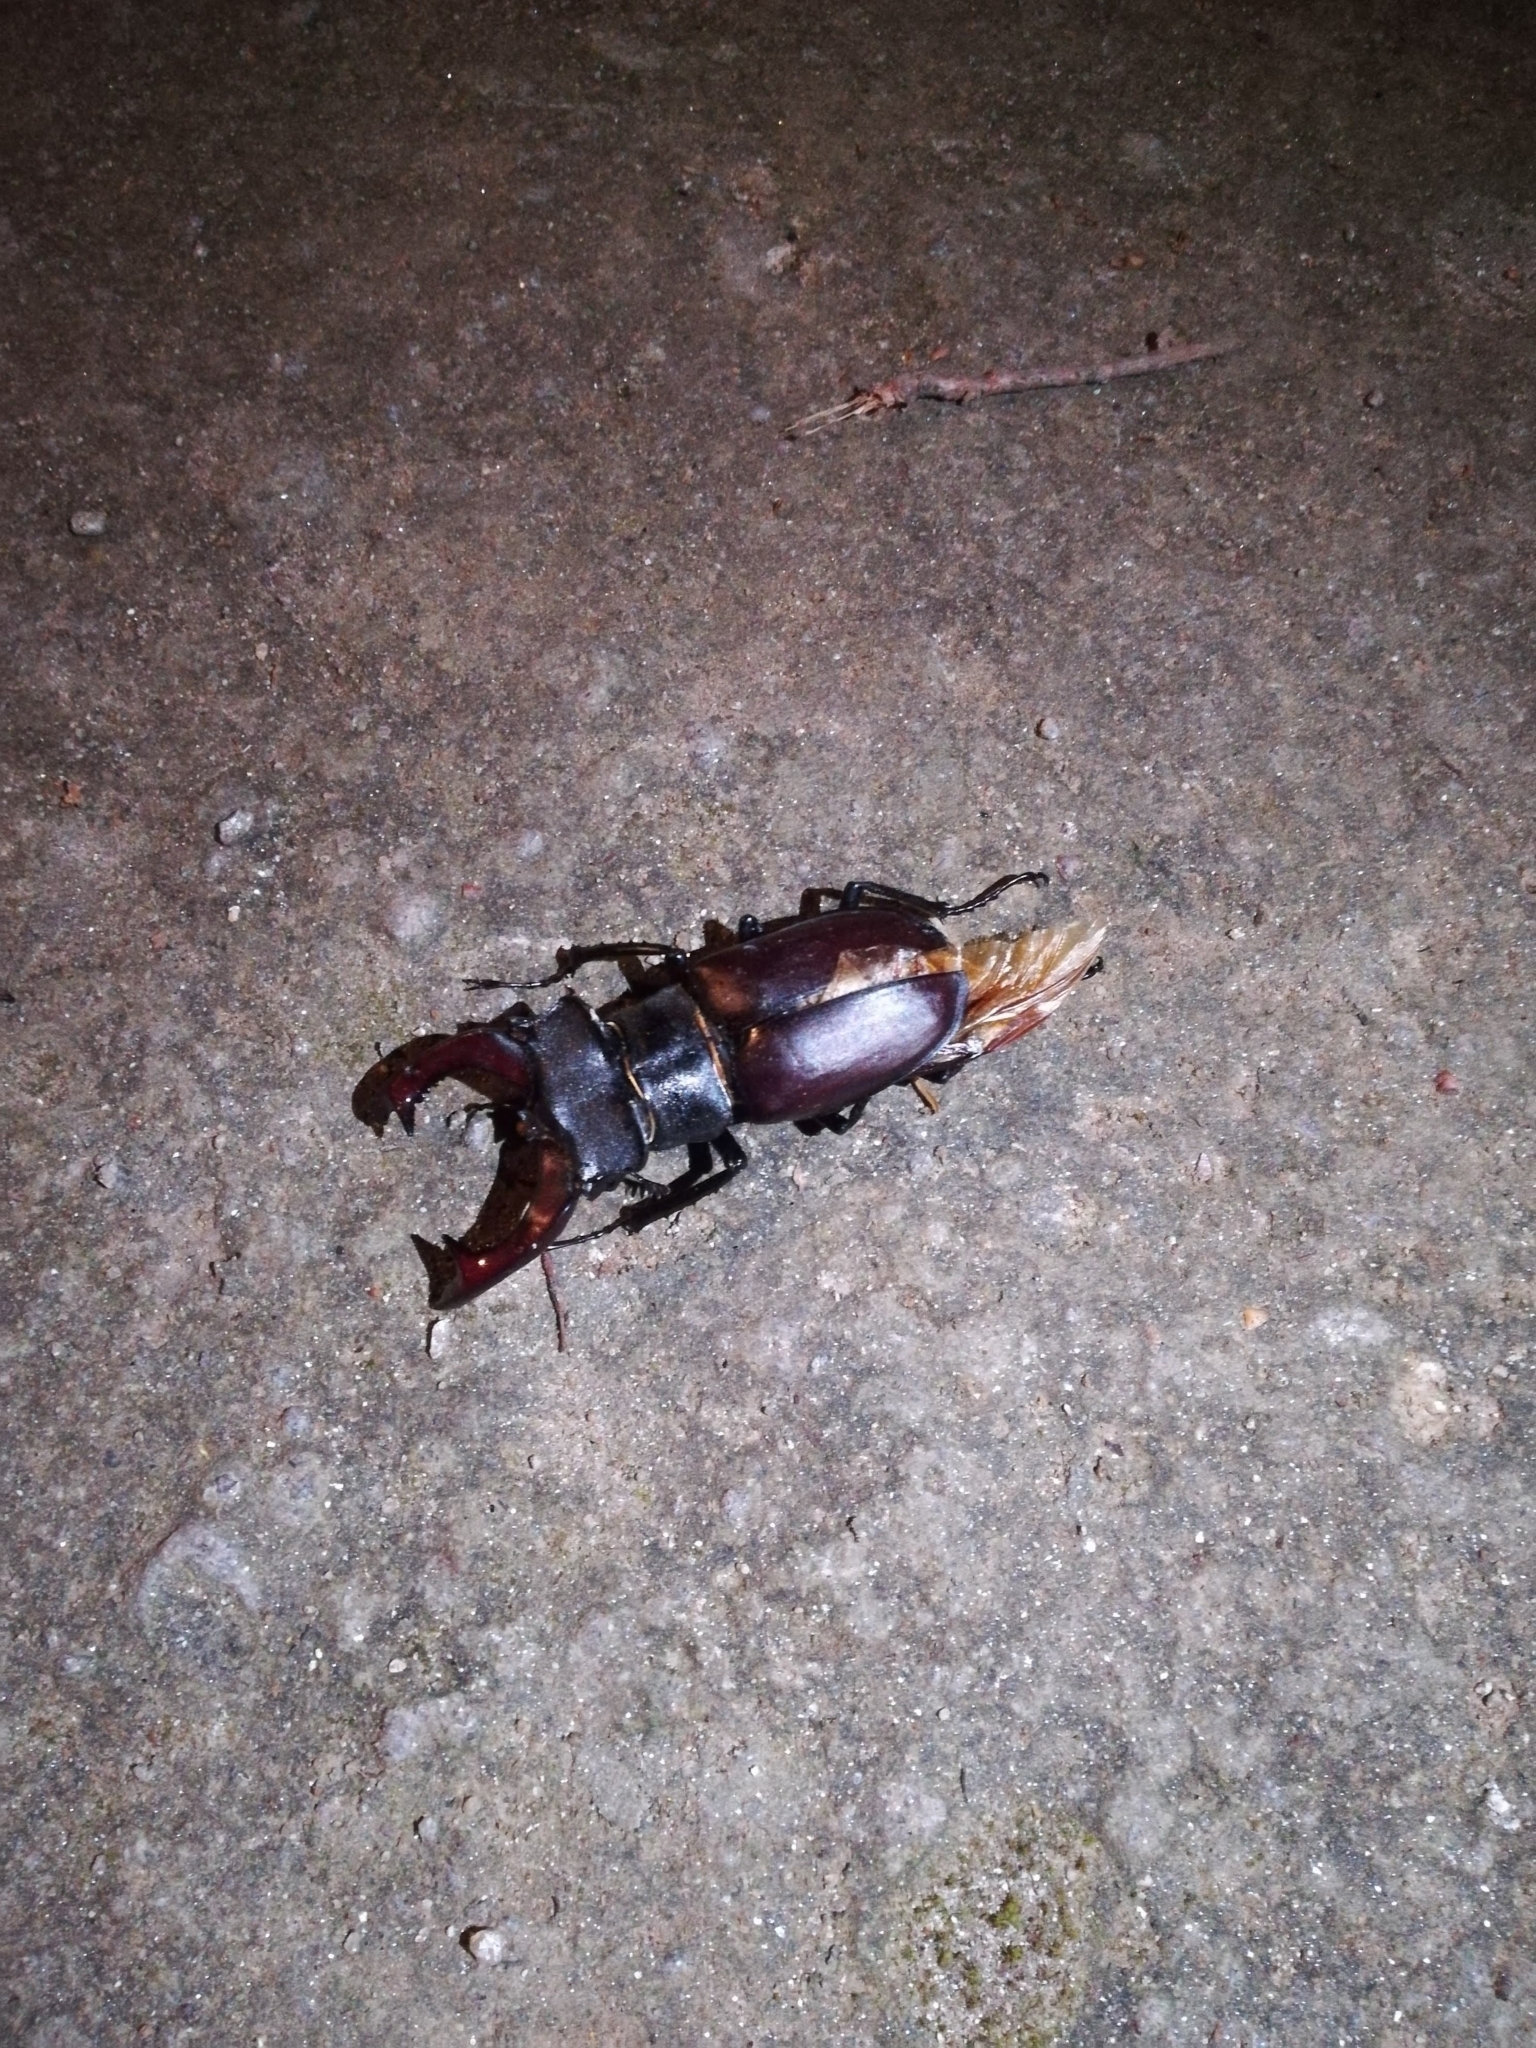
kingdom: Animalia
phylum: Arthropoda
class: Insecta
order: Coleoptera
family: Lucanidae
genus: Lucanus
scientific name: Lucanus cervus
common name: Stag beetle
